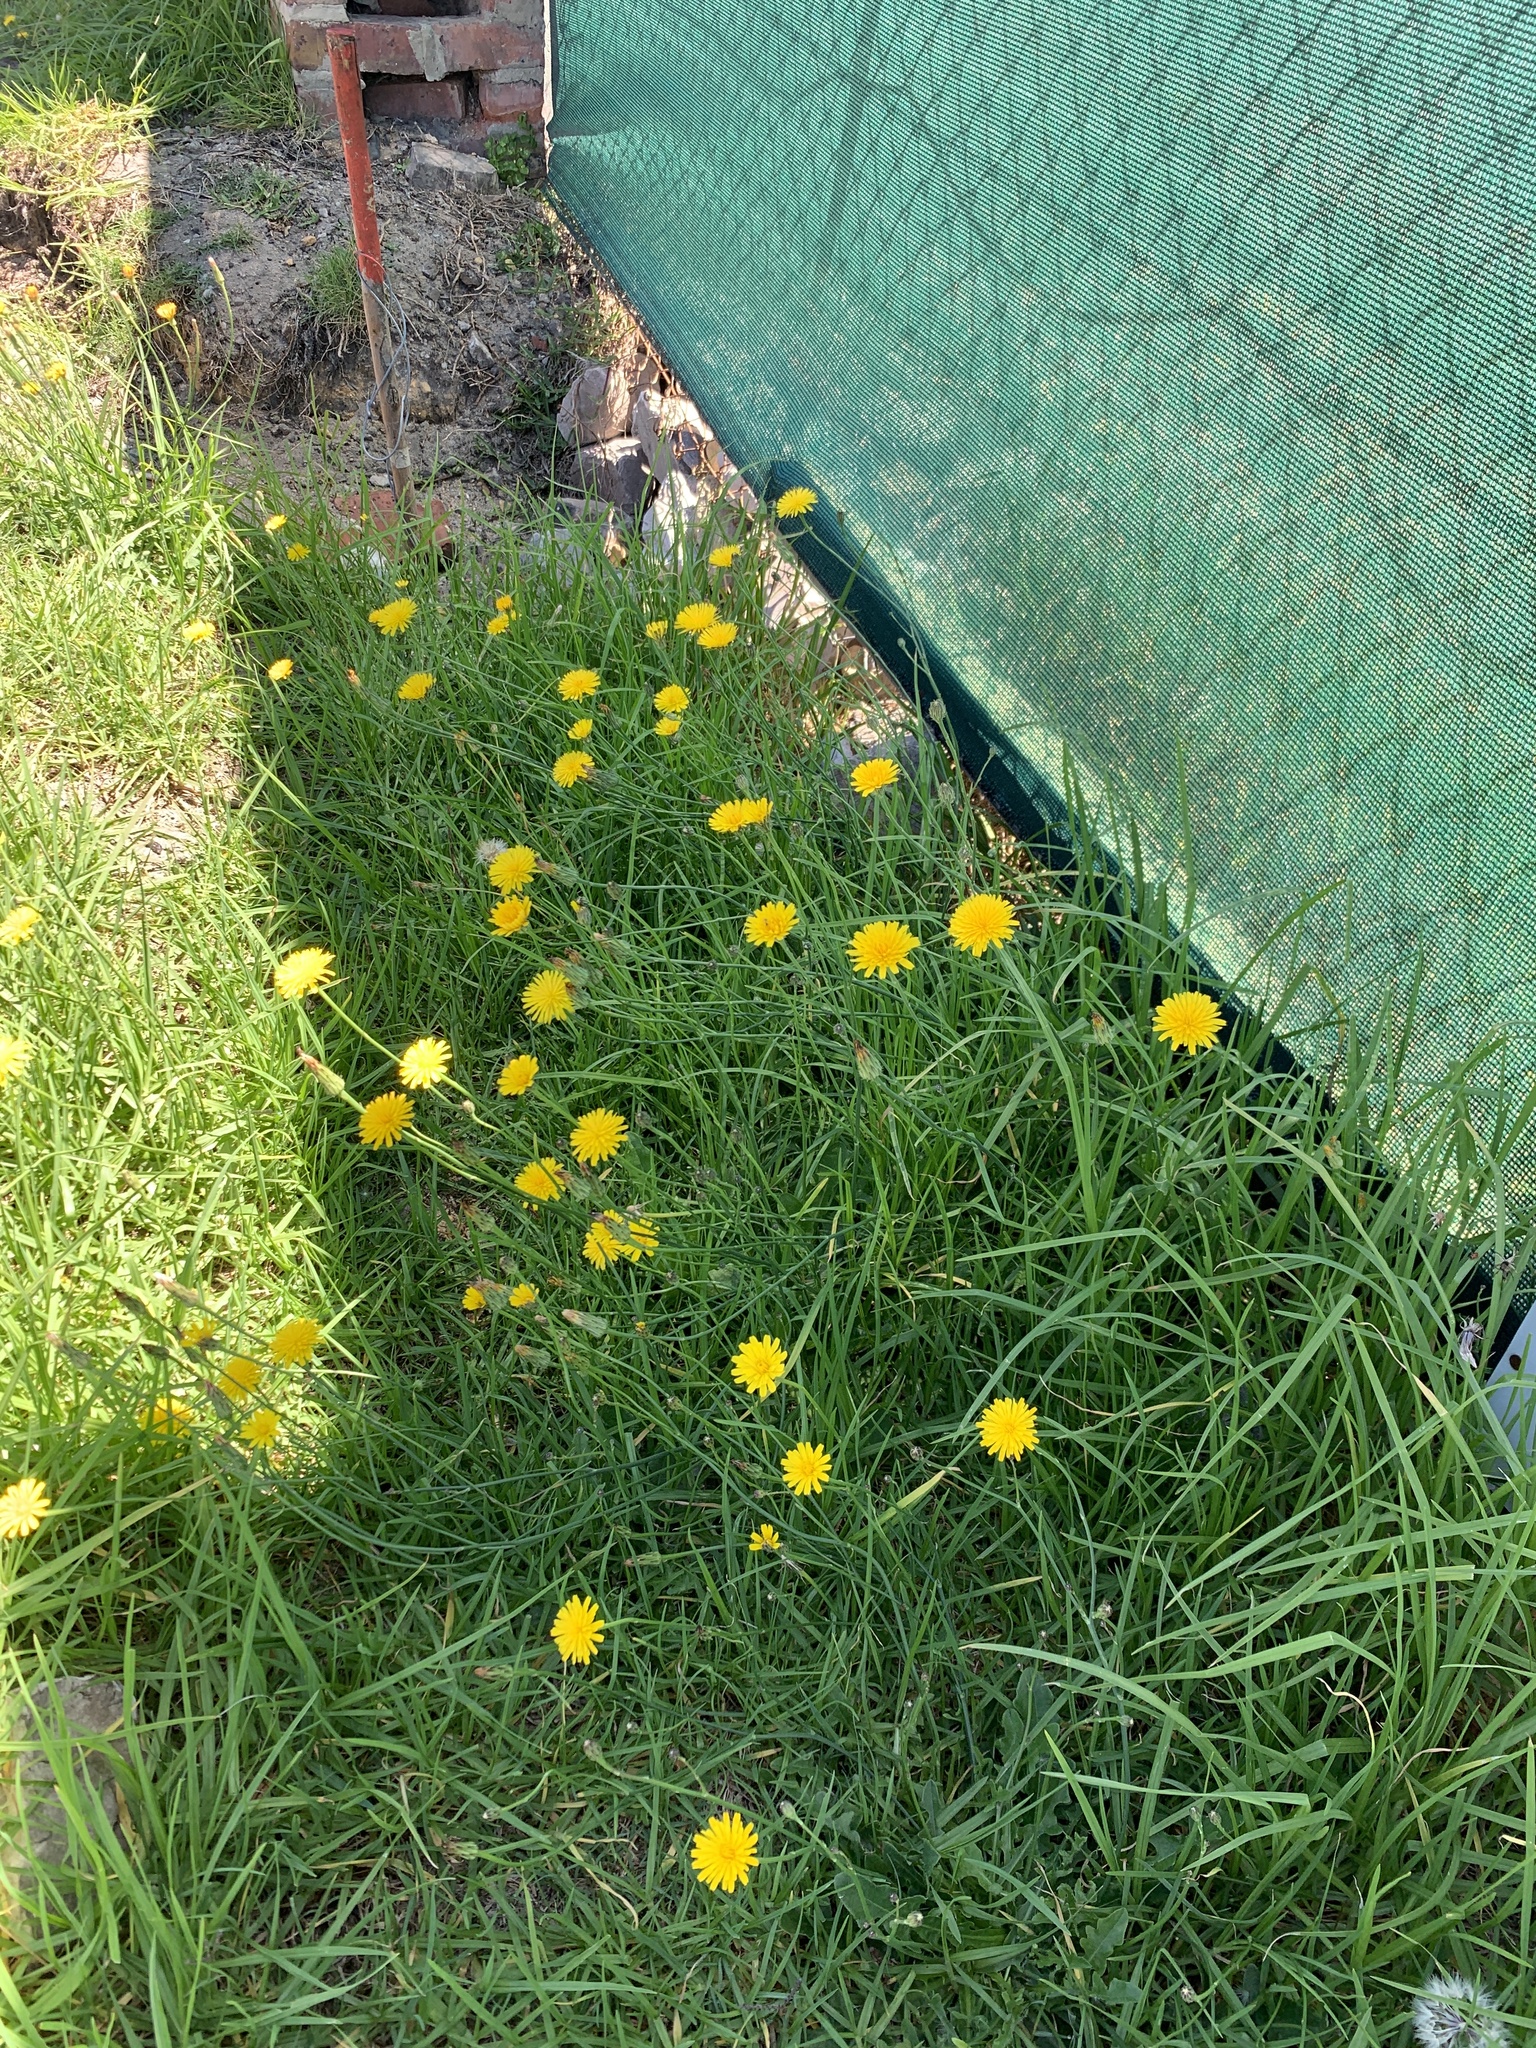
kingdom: Plantae
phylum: Tracheophyta
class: Magnoliopsida
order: Asterales
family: Asteraceae
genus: Hypochaeris
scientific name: Hypochaeris radicata
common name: Flatweed
